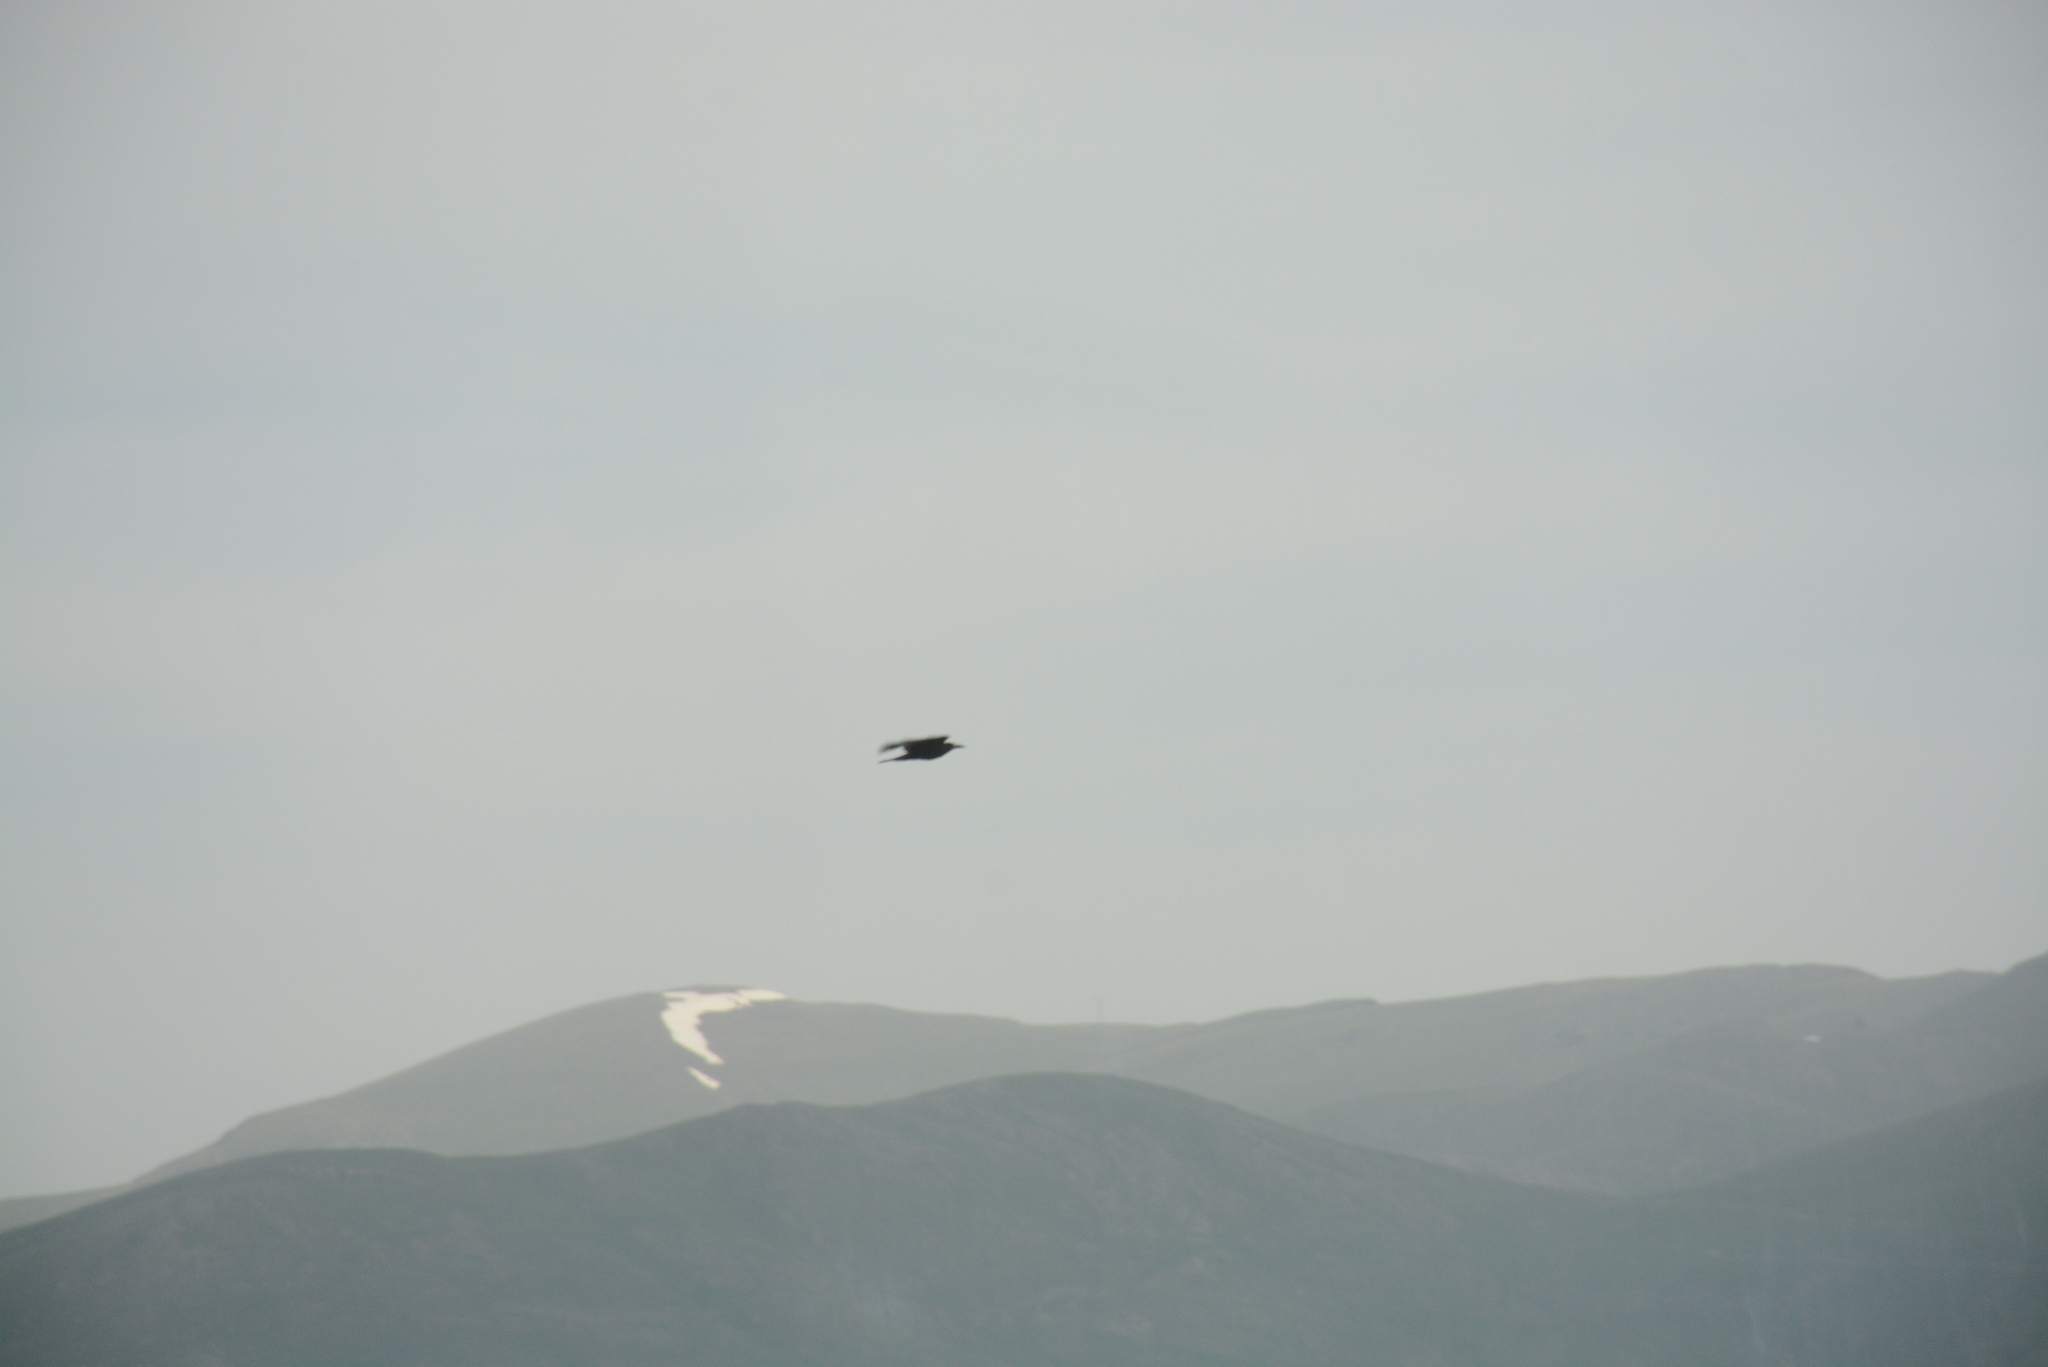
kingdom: Animalia
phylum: Chordata
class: Aves
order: Passeriformes
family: Corvidae
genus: Corvus
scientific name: Corvus frugilegus
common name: Rook
